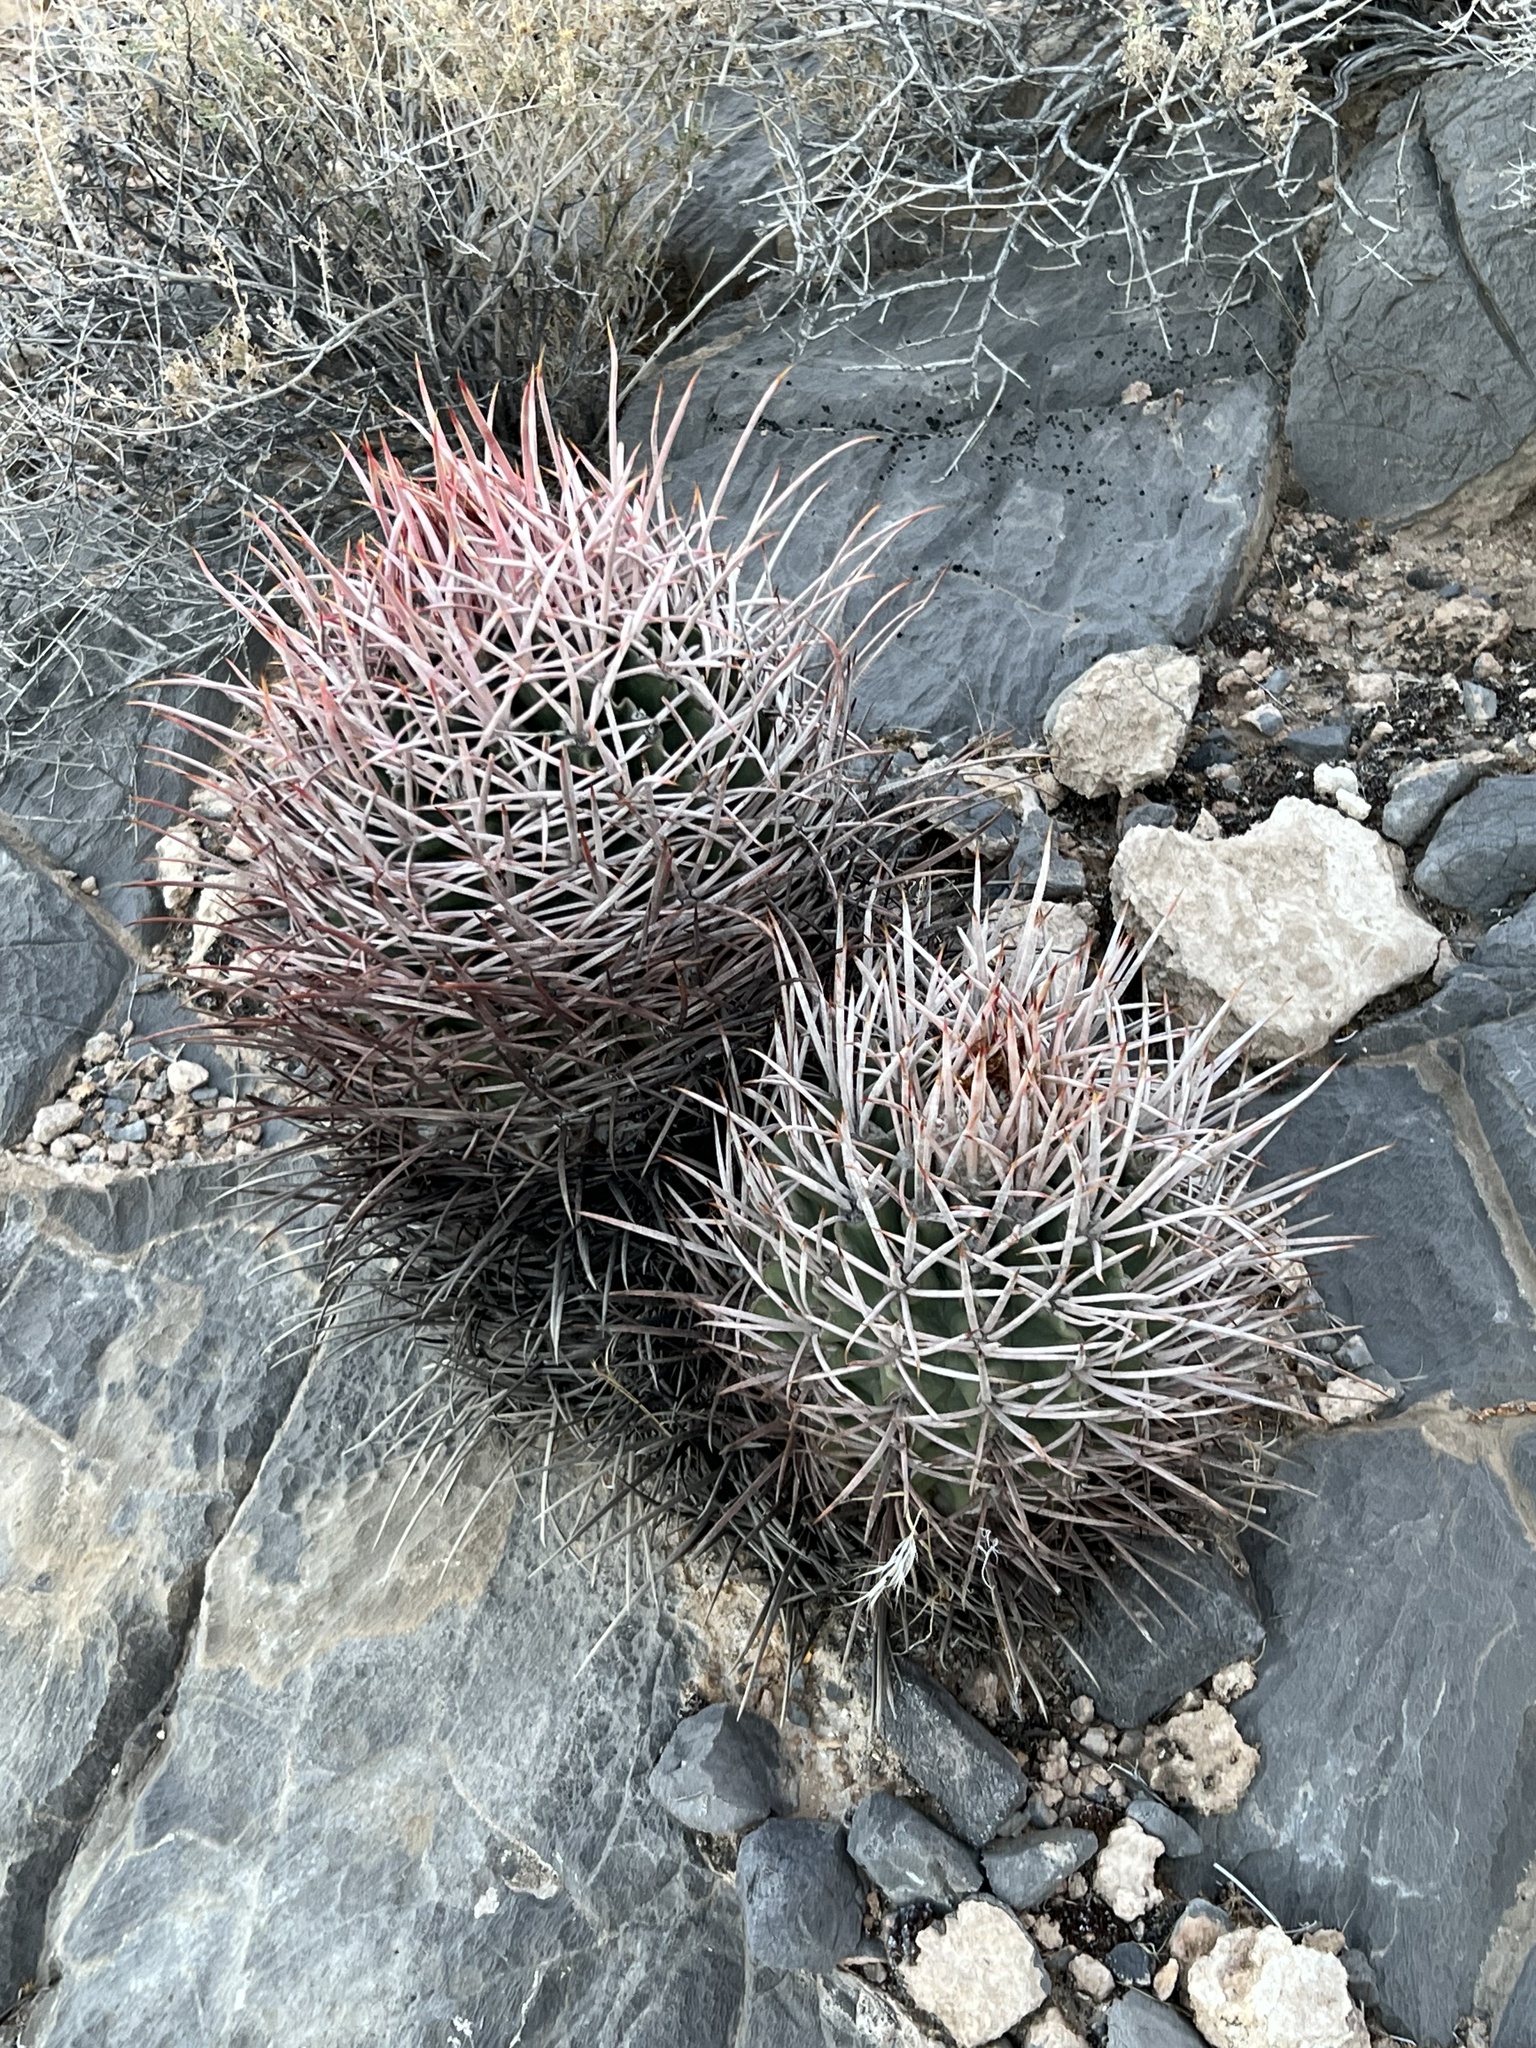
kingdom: Plantae
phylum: Tracheophyta
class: Magnoliopsida
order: Caryophyllales
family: Cactaceae
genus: Echinocactus
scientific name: Echinocactus polycephalus
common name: Cottontop cactus
